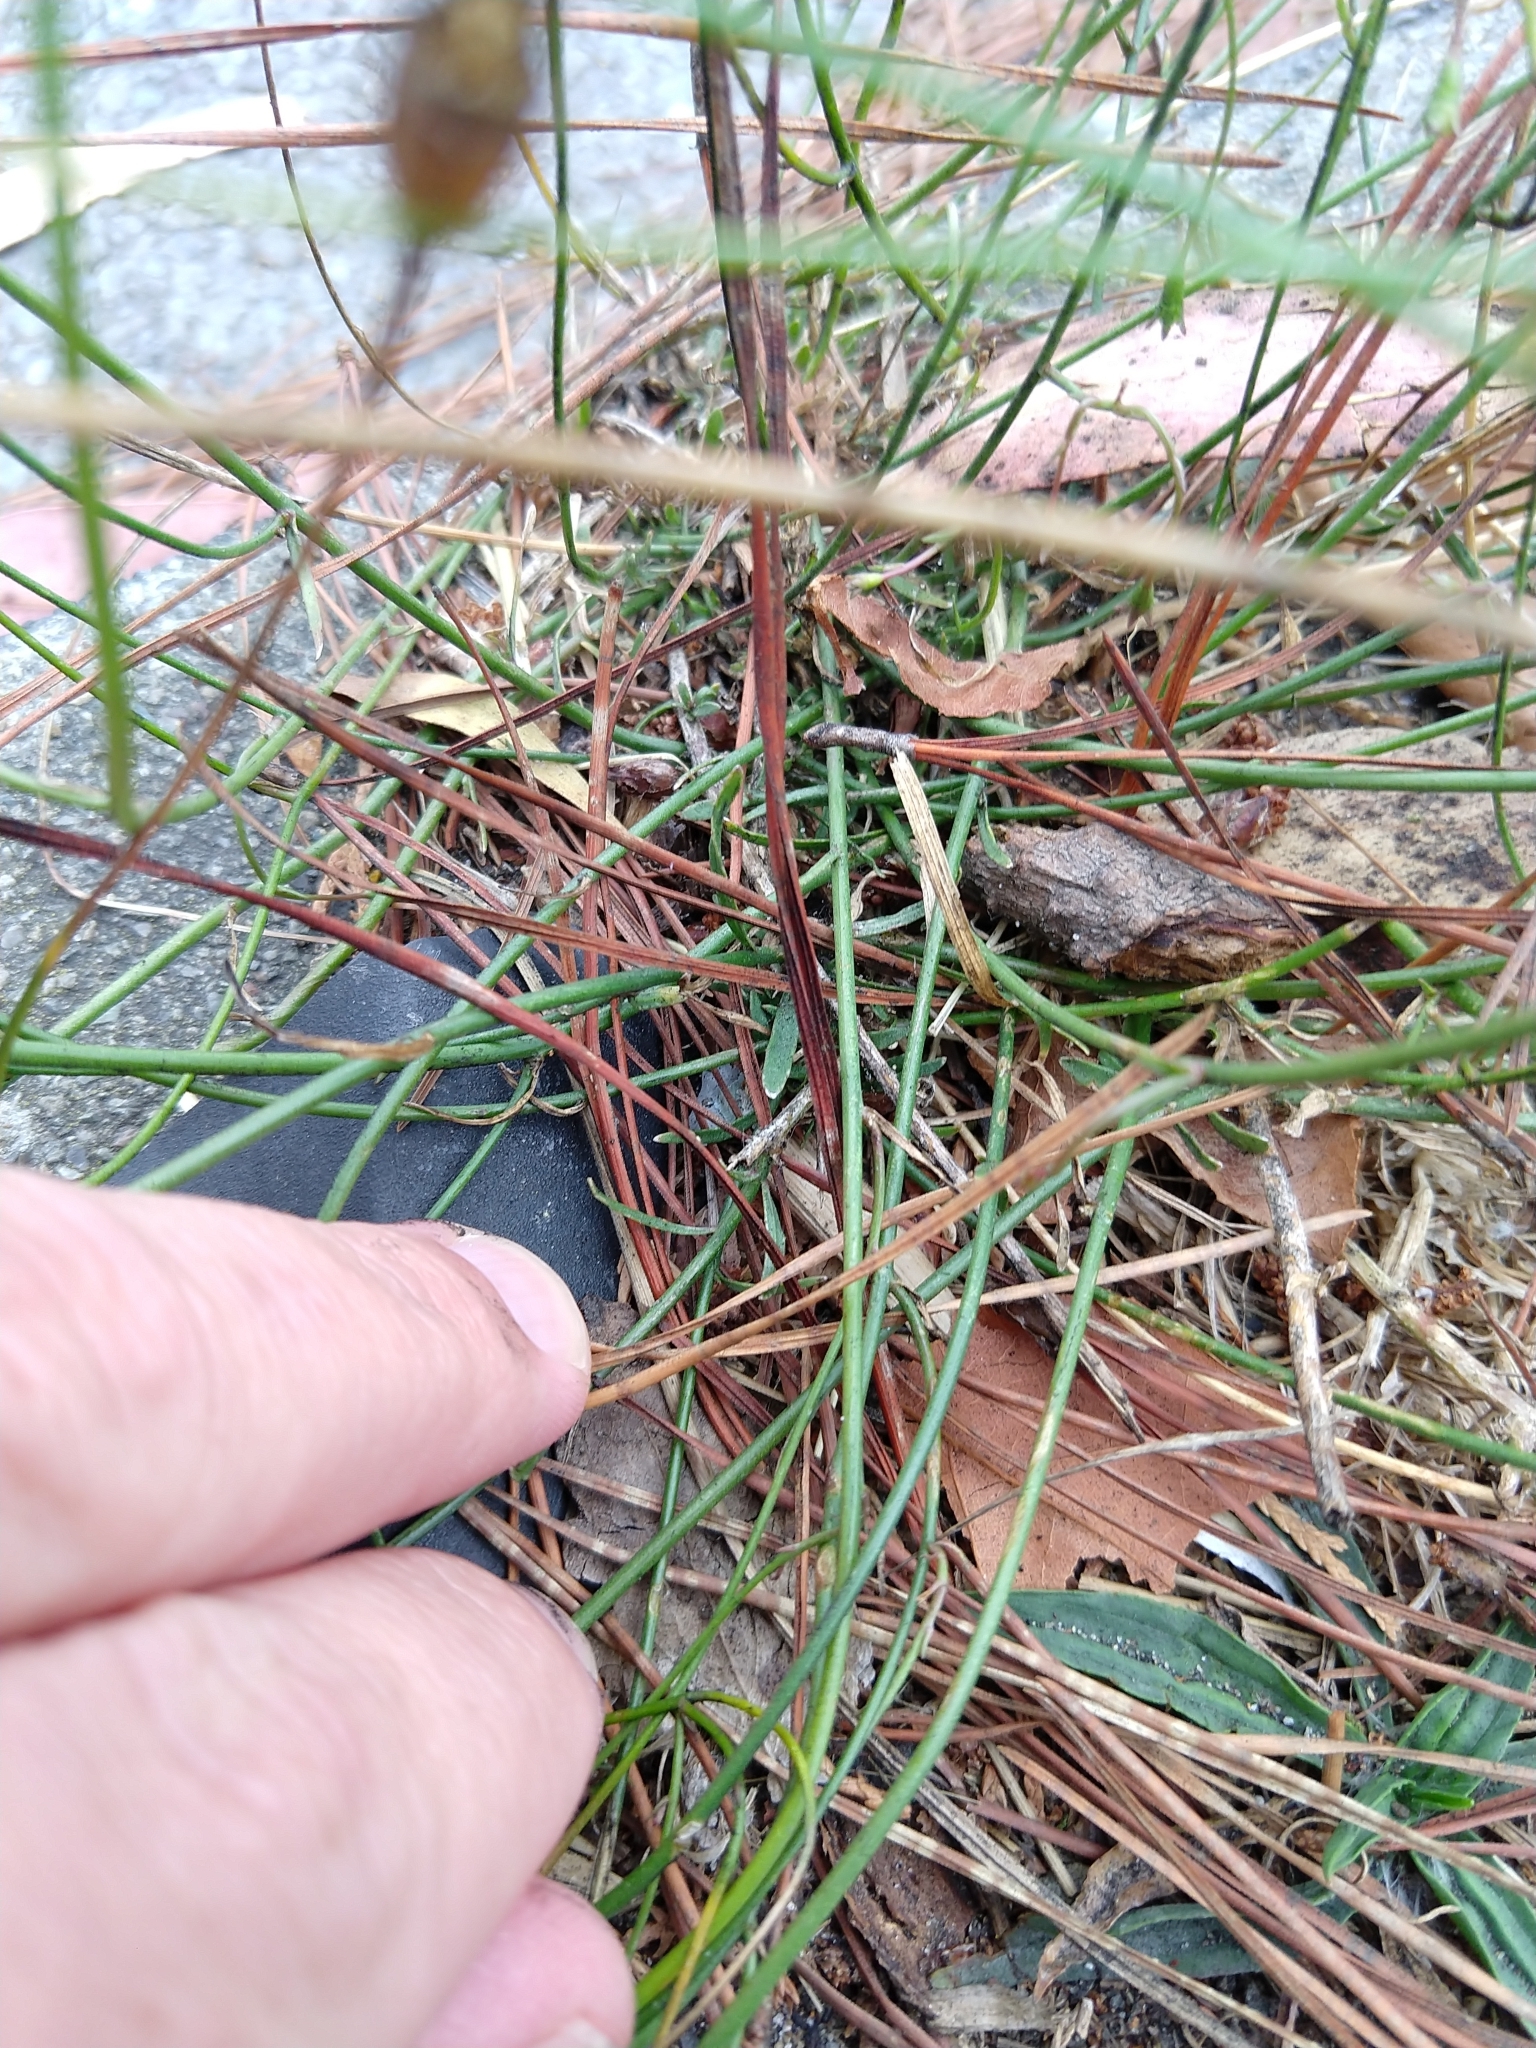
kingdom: Plantae
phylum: Tracheophyta
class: Magnoliopsida
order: Asterales
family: Campanulaceae
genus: Wahlenbergia
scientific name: Wahlenbergia marginata
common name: Southern rockbell
